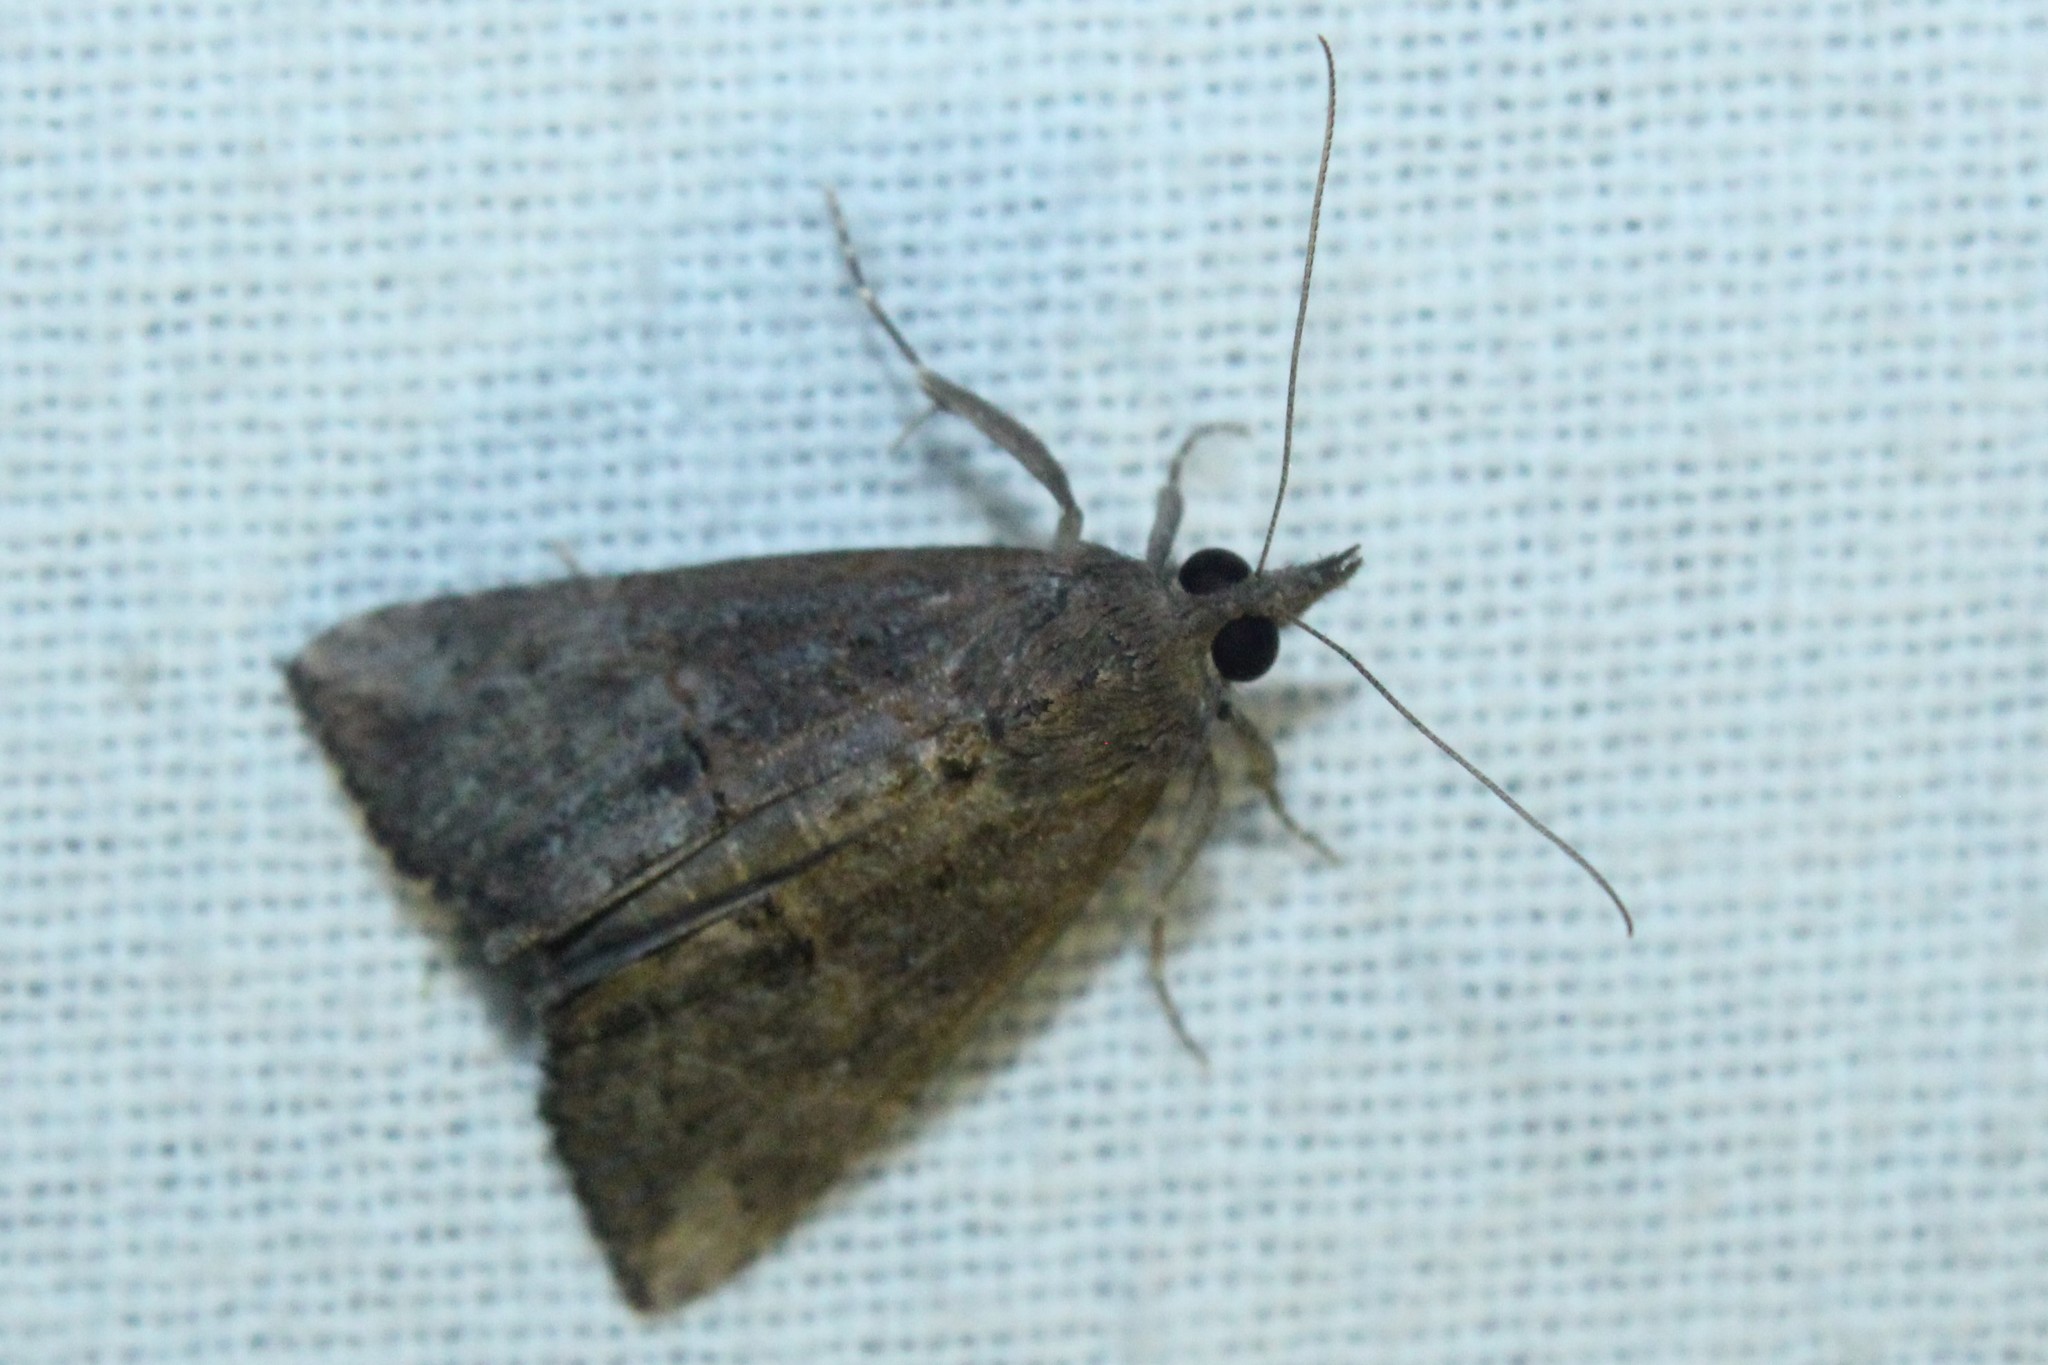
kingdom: Animalia
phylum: Arthropoda
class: Insecta
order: Lepidoptera
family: Erebidae
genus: Hypena
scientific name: Hypena scabra
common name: Green cloverworm
